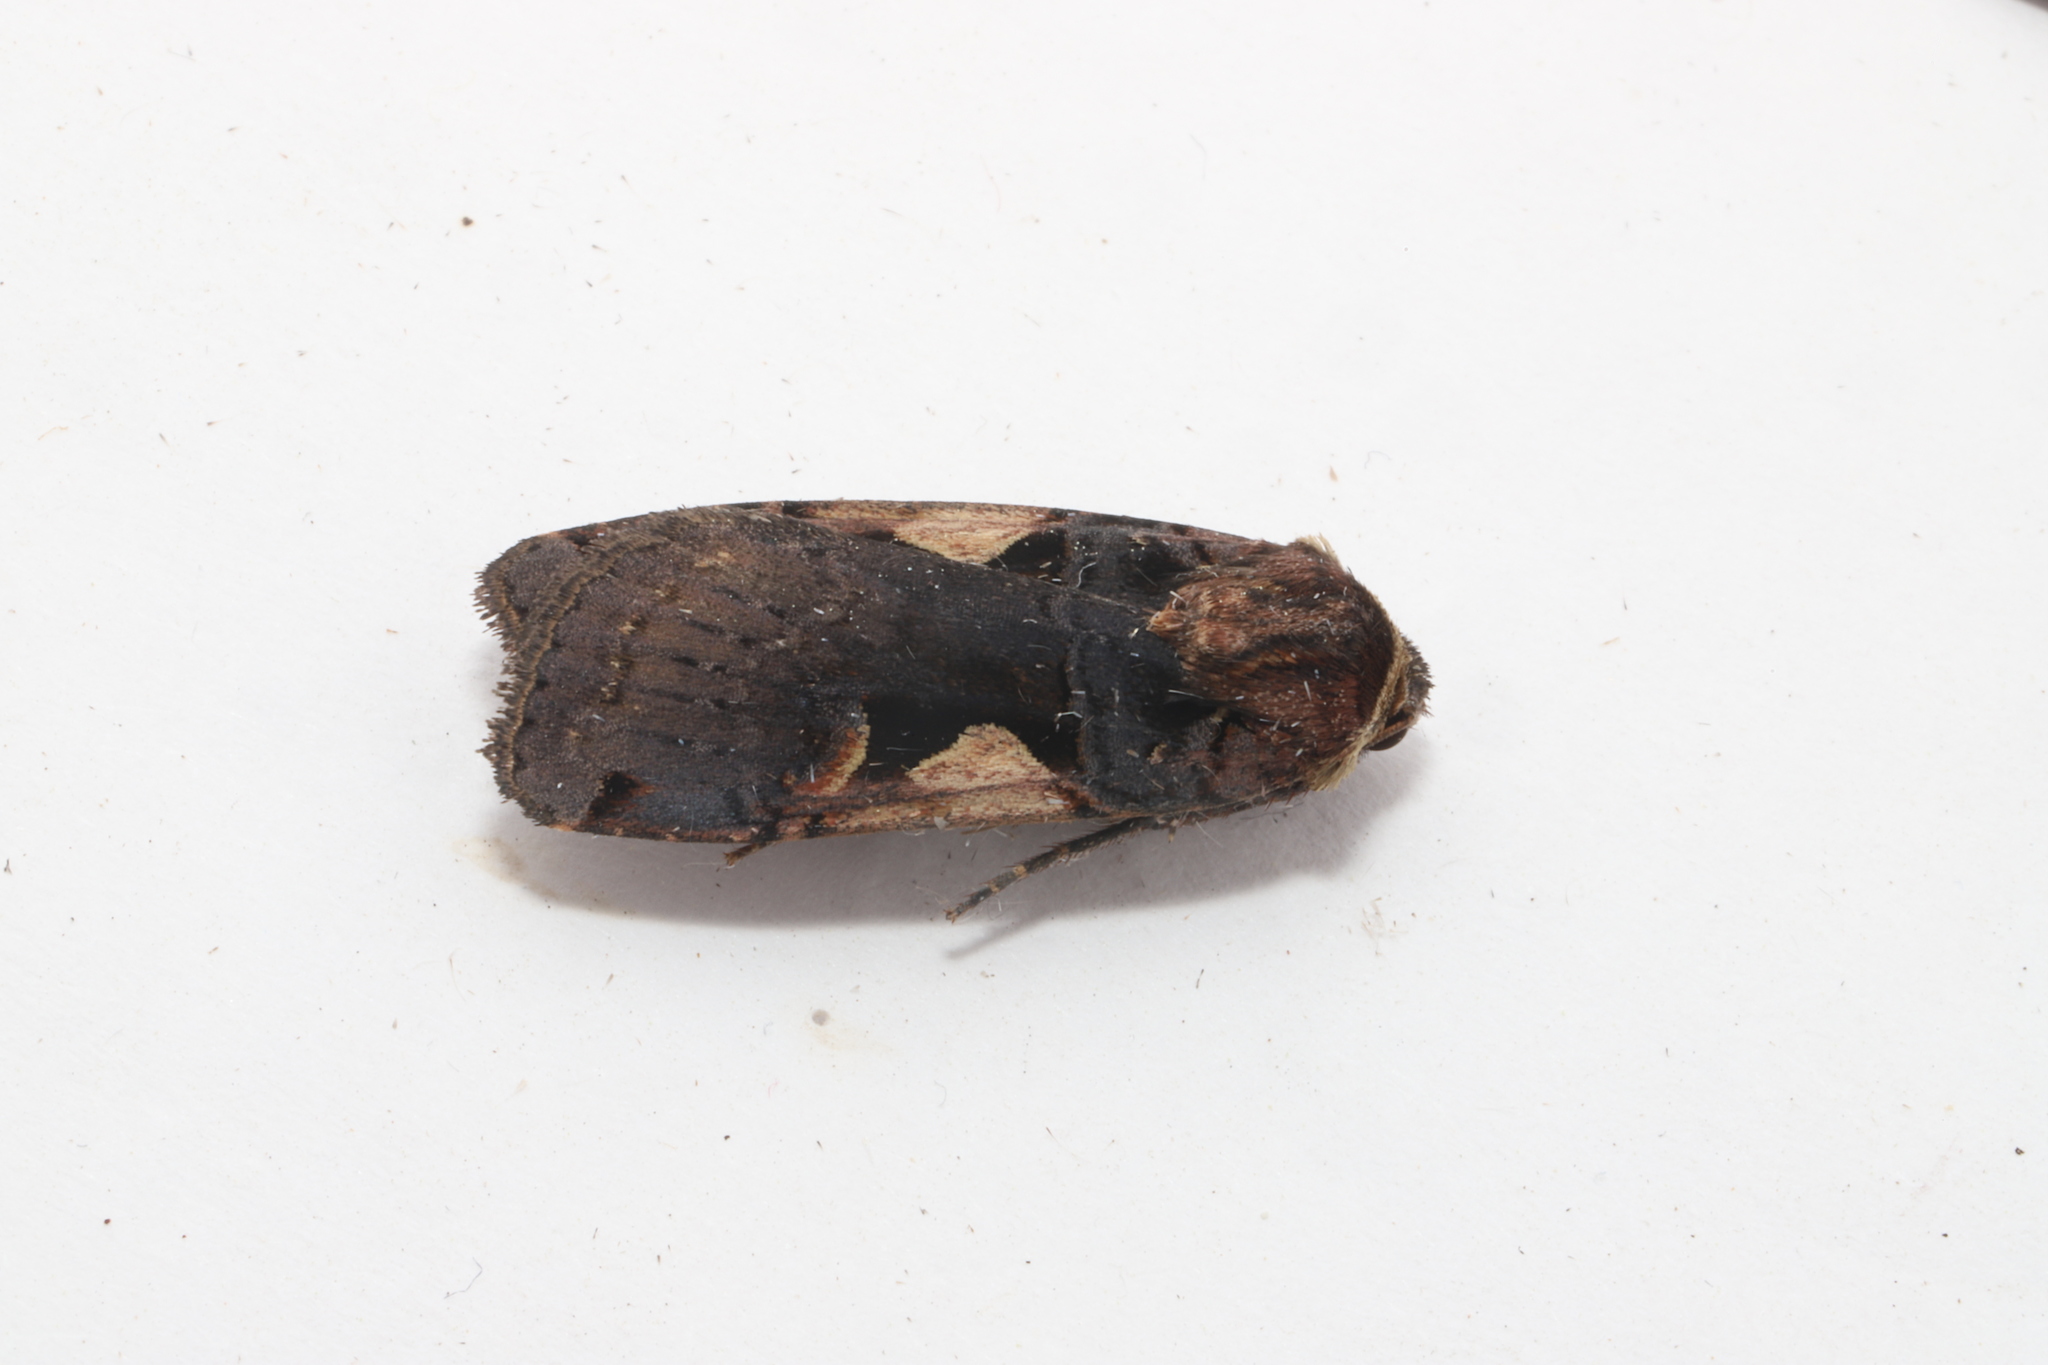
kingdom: Animalia
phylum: Arthropoda
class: Insecta
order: Lepidoptera
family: Noctuidae
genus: Xestia
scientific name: Xestia
